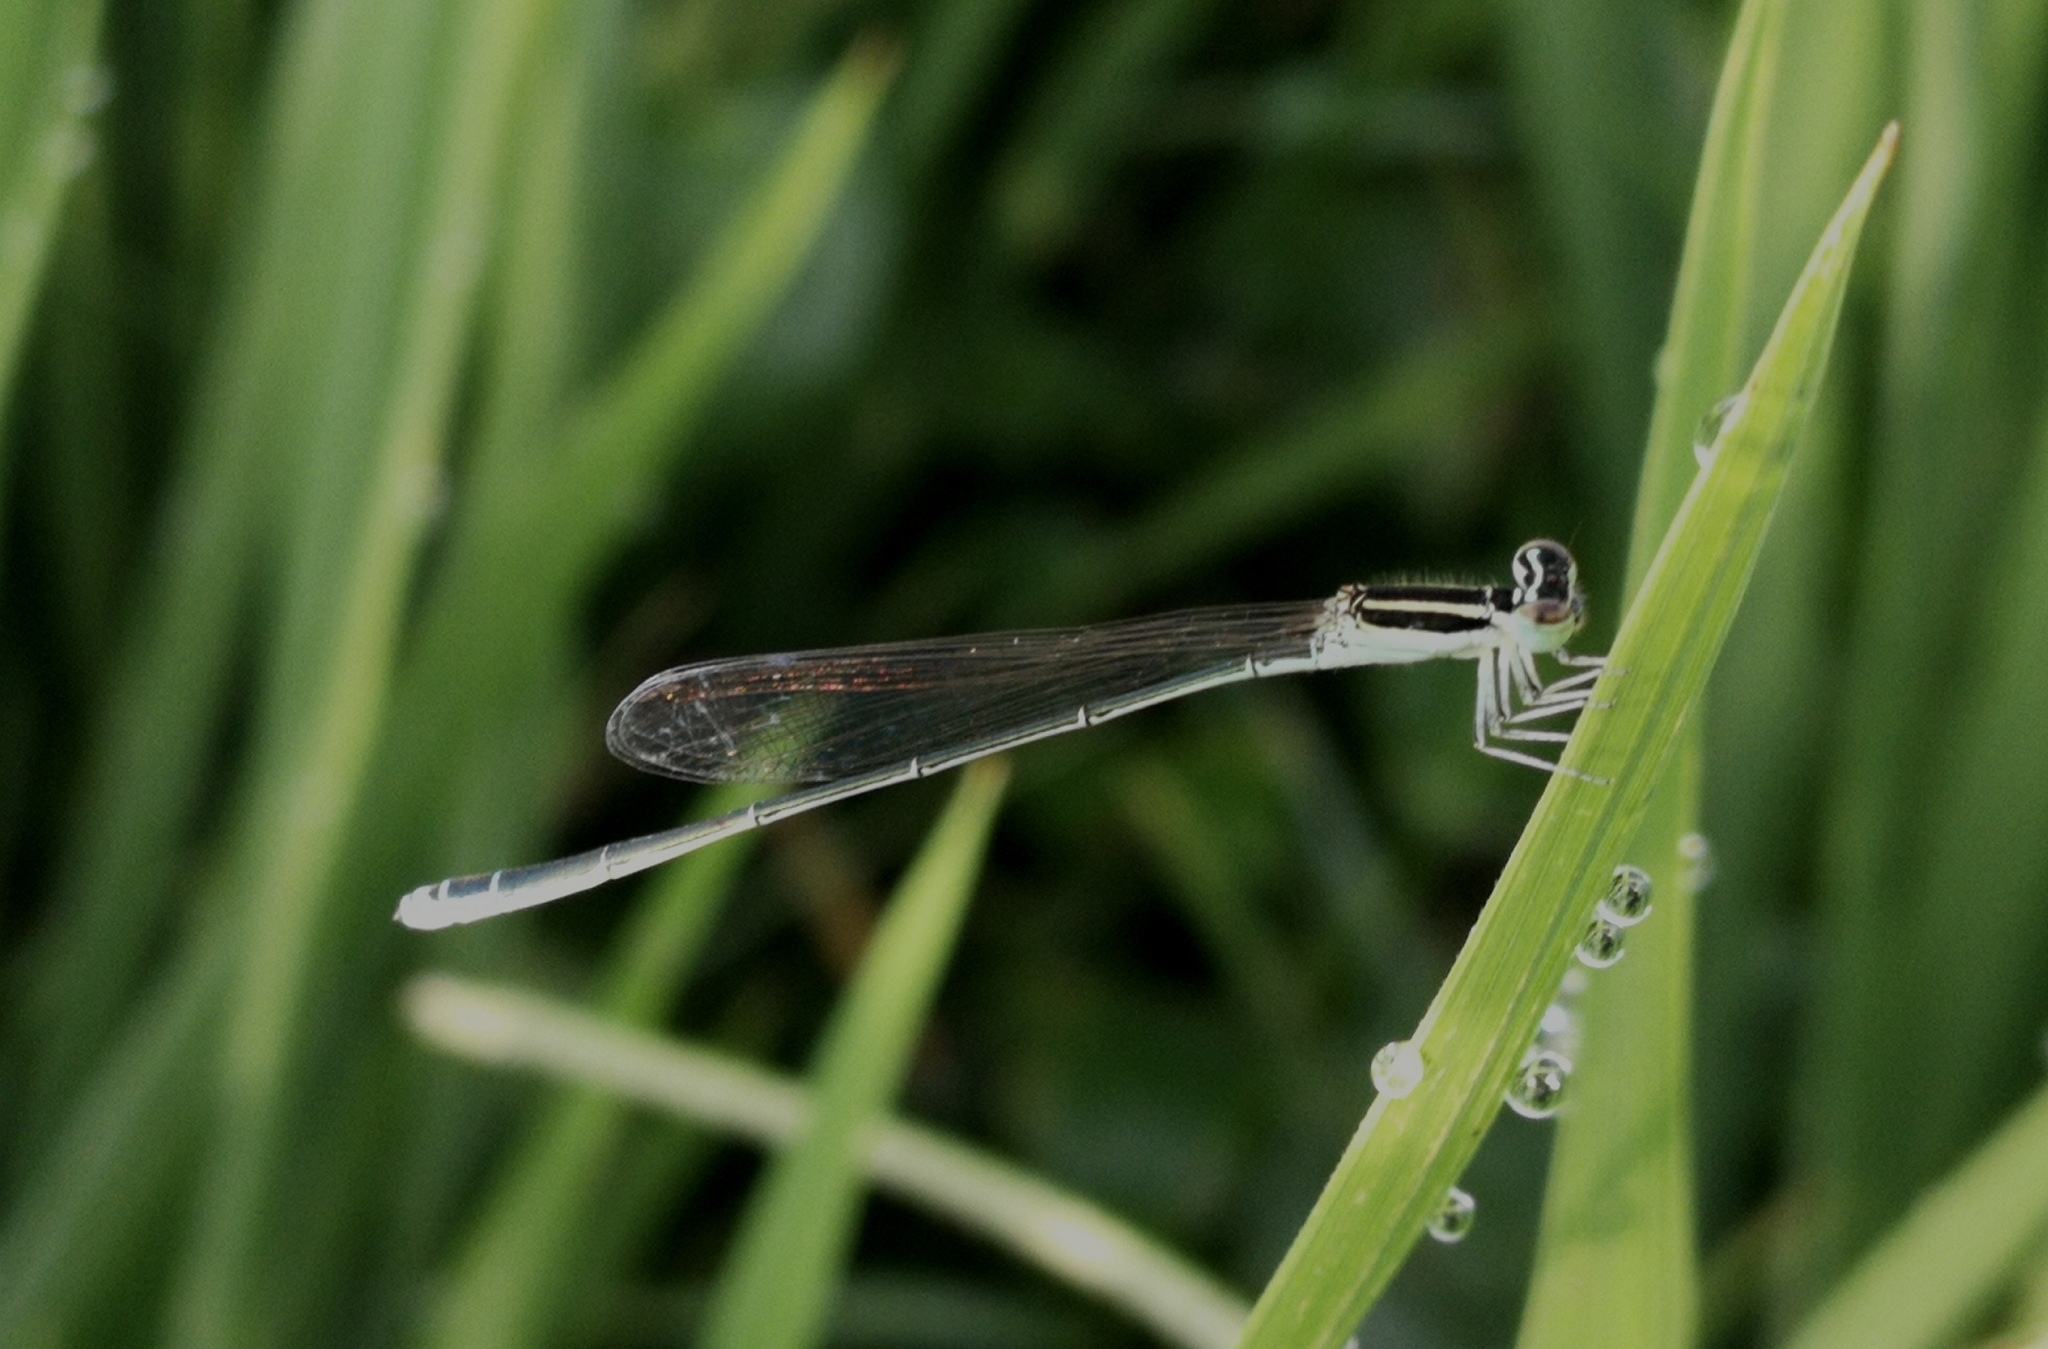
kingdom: Animalia
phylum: Arthropoda
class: Insecta
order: Odonata
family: Coenagrionidae
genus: Aciagrion
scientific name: Aciagrion occidentale
